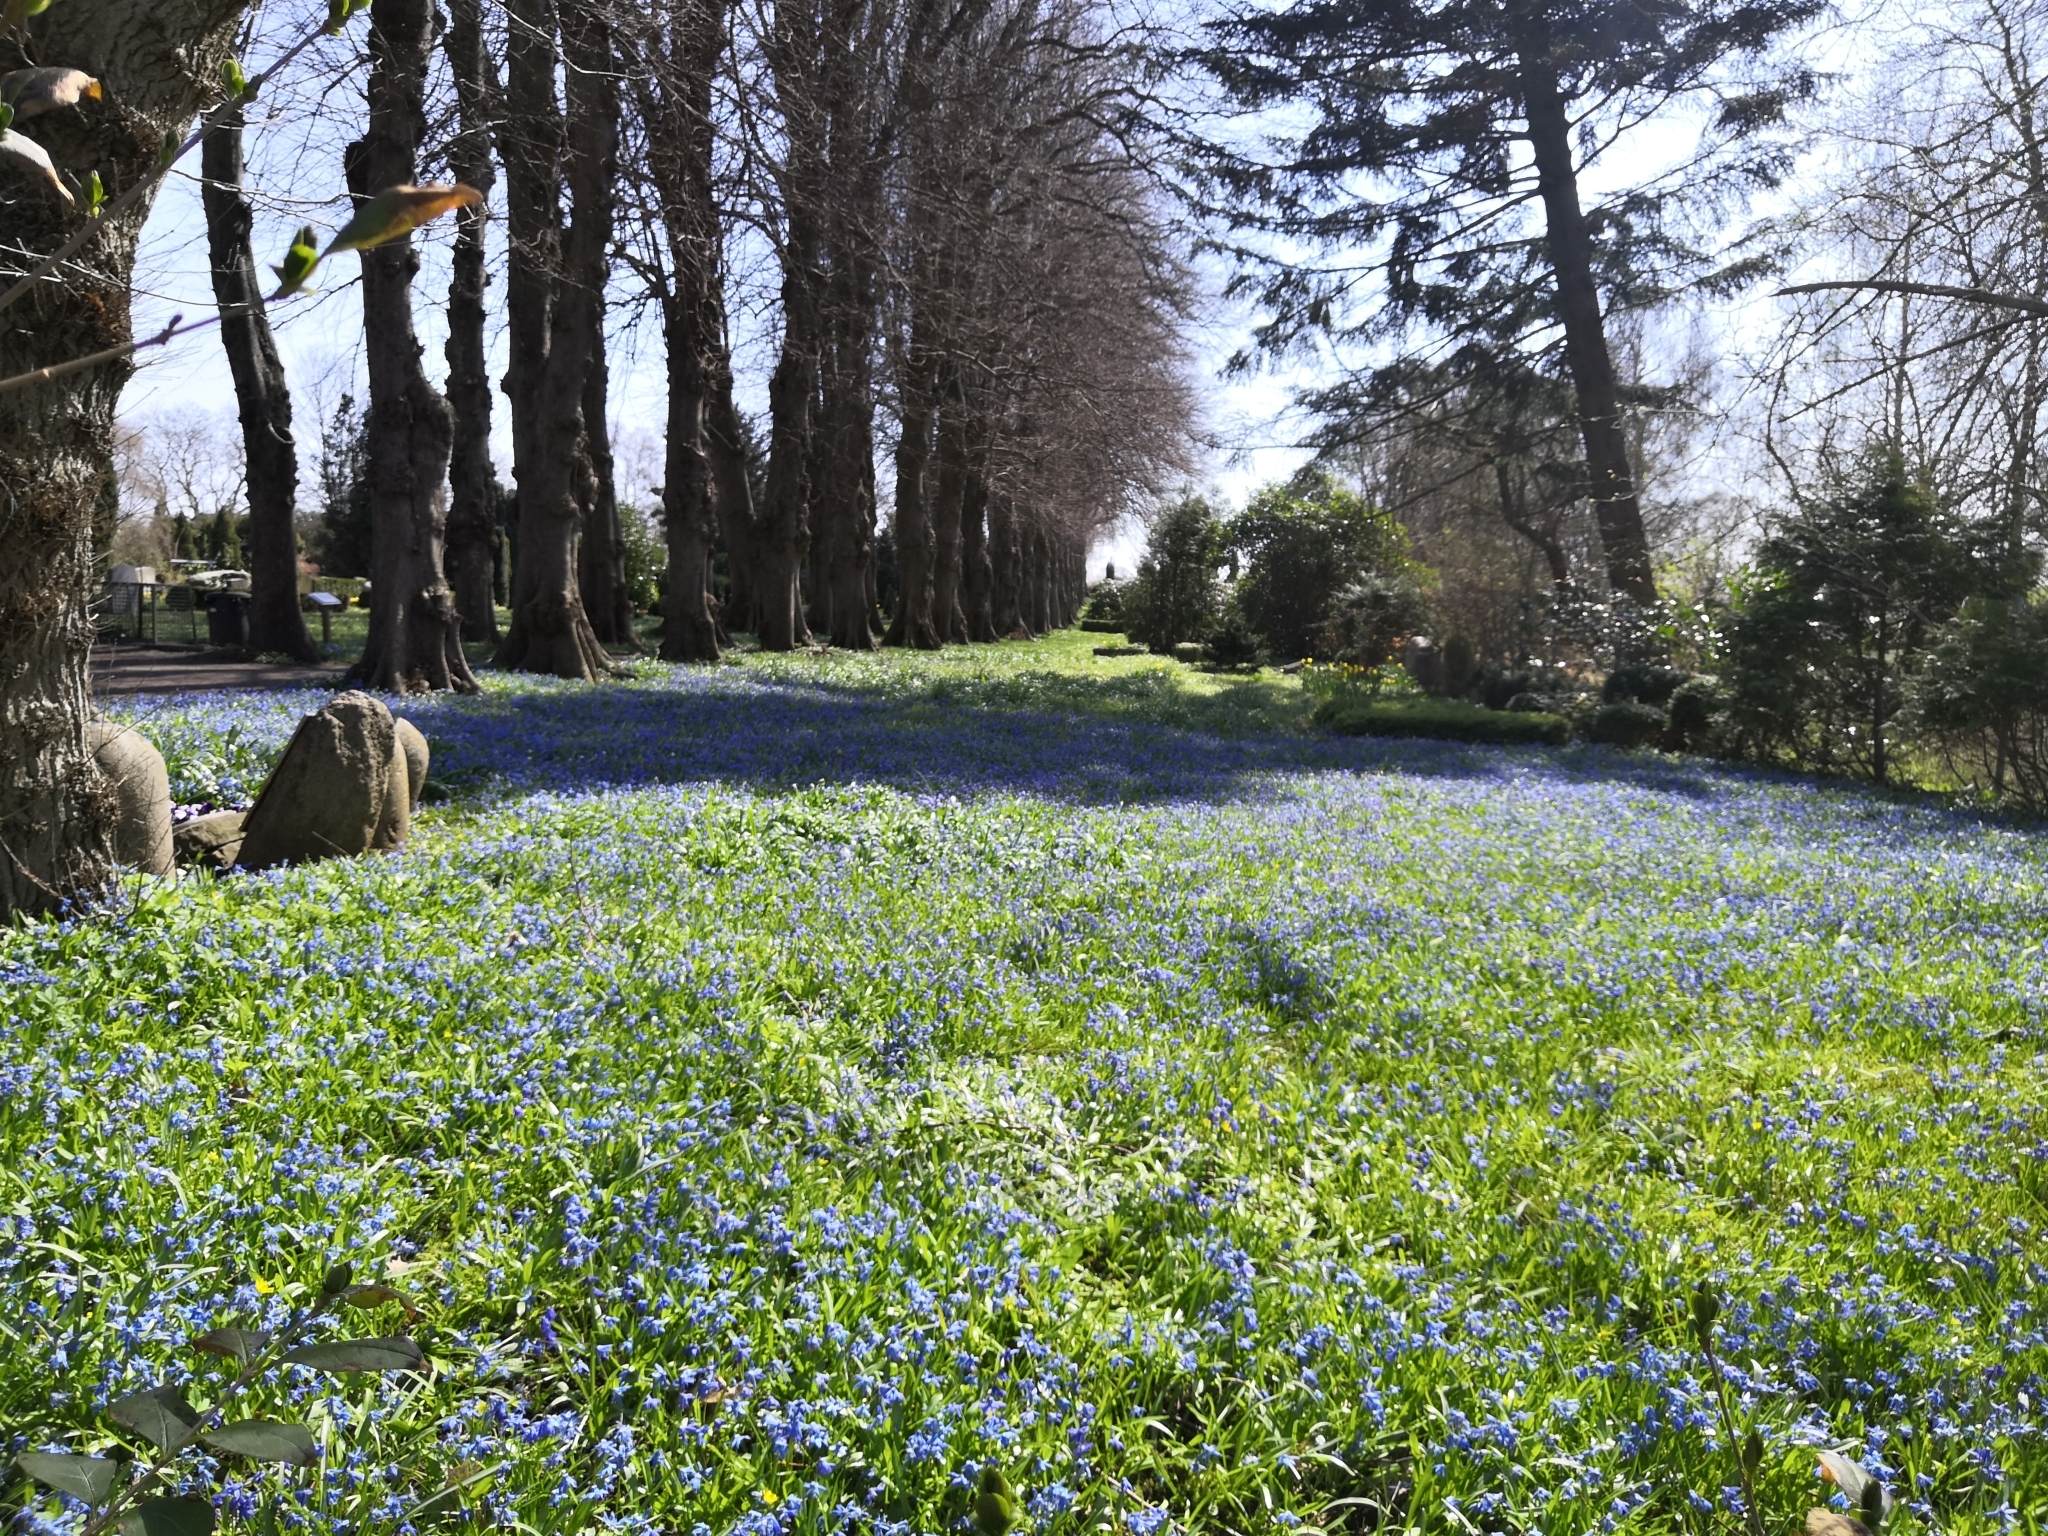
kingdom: Plantae
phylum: Tracheophyta
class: Liliopsida
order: Asparagales
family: Asparagaceae
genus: Scilla
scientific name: Scilla siberica
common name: Siberian squill
